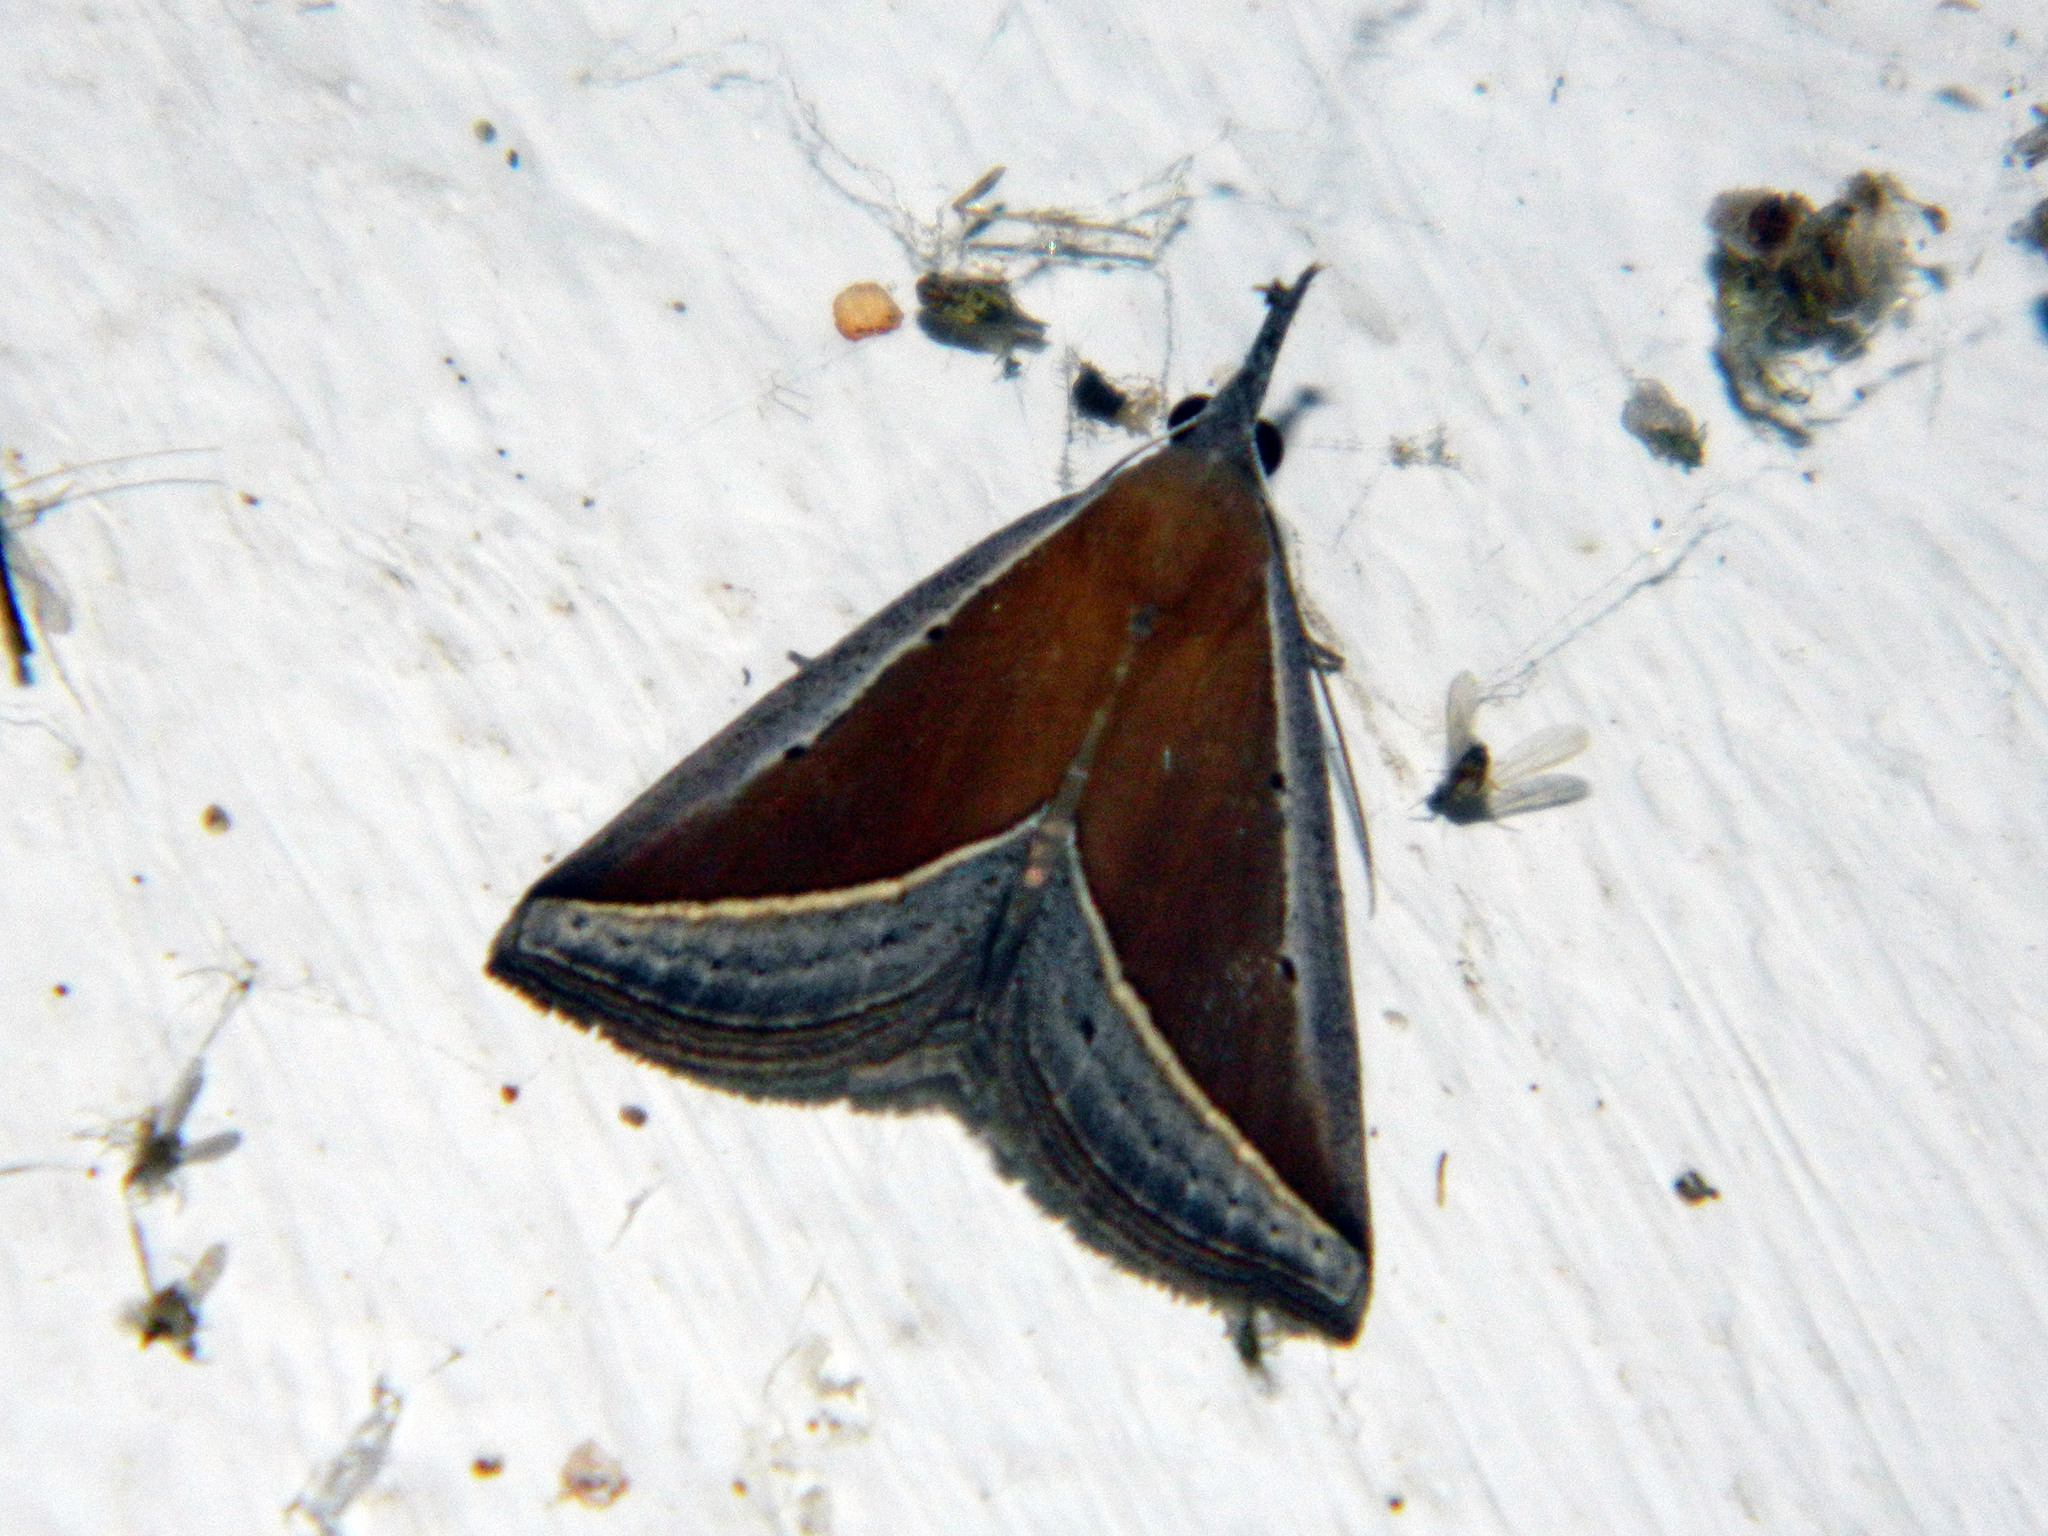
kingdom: Animalia
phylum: Arthropoda
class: Insecta
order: Lepidoptera
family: Erebidae
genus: Hypena
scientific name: Hypena conscitalis
